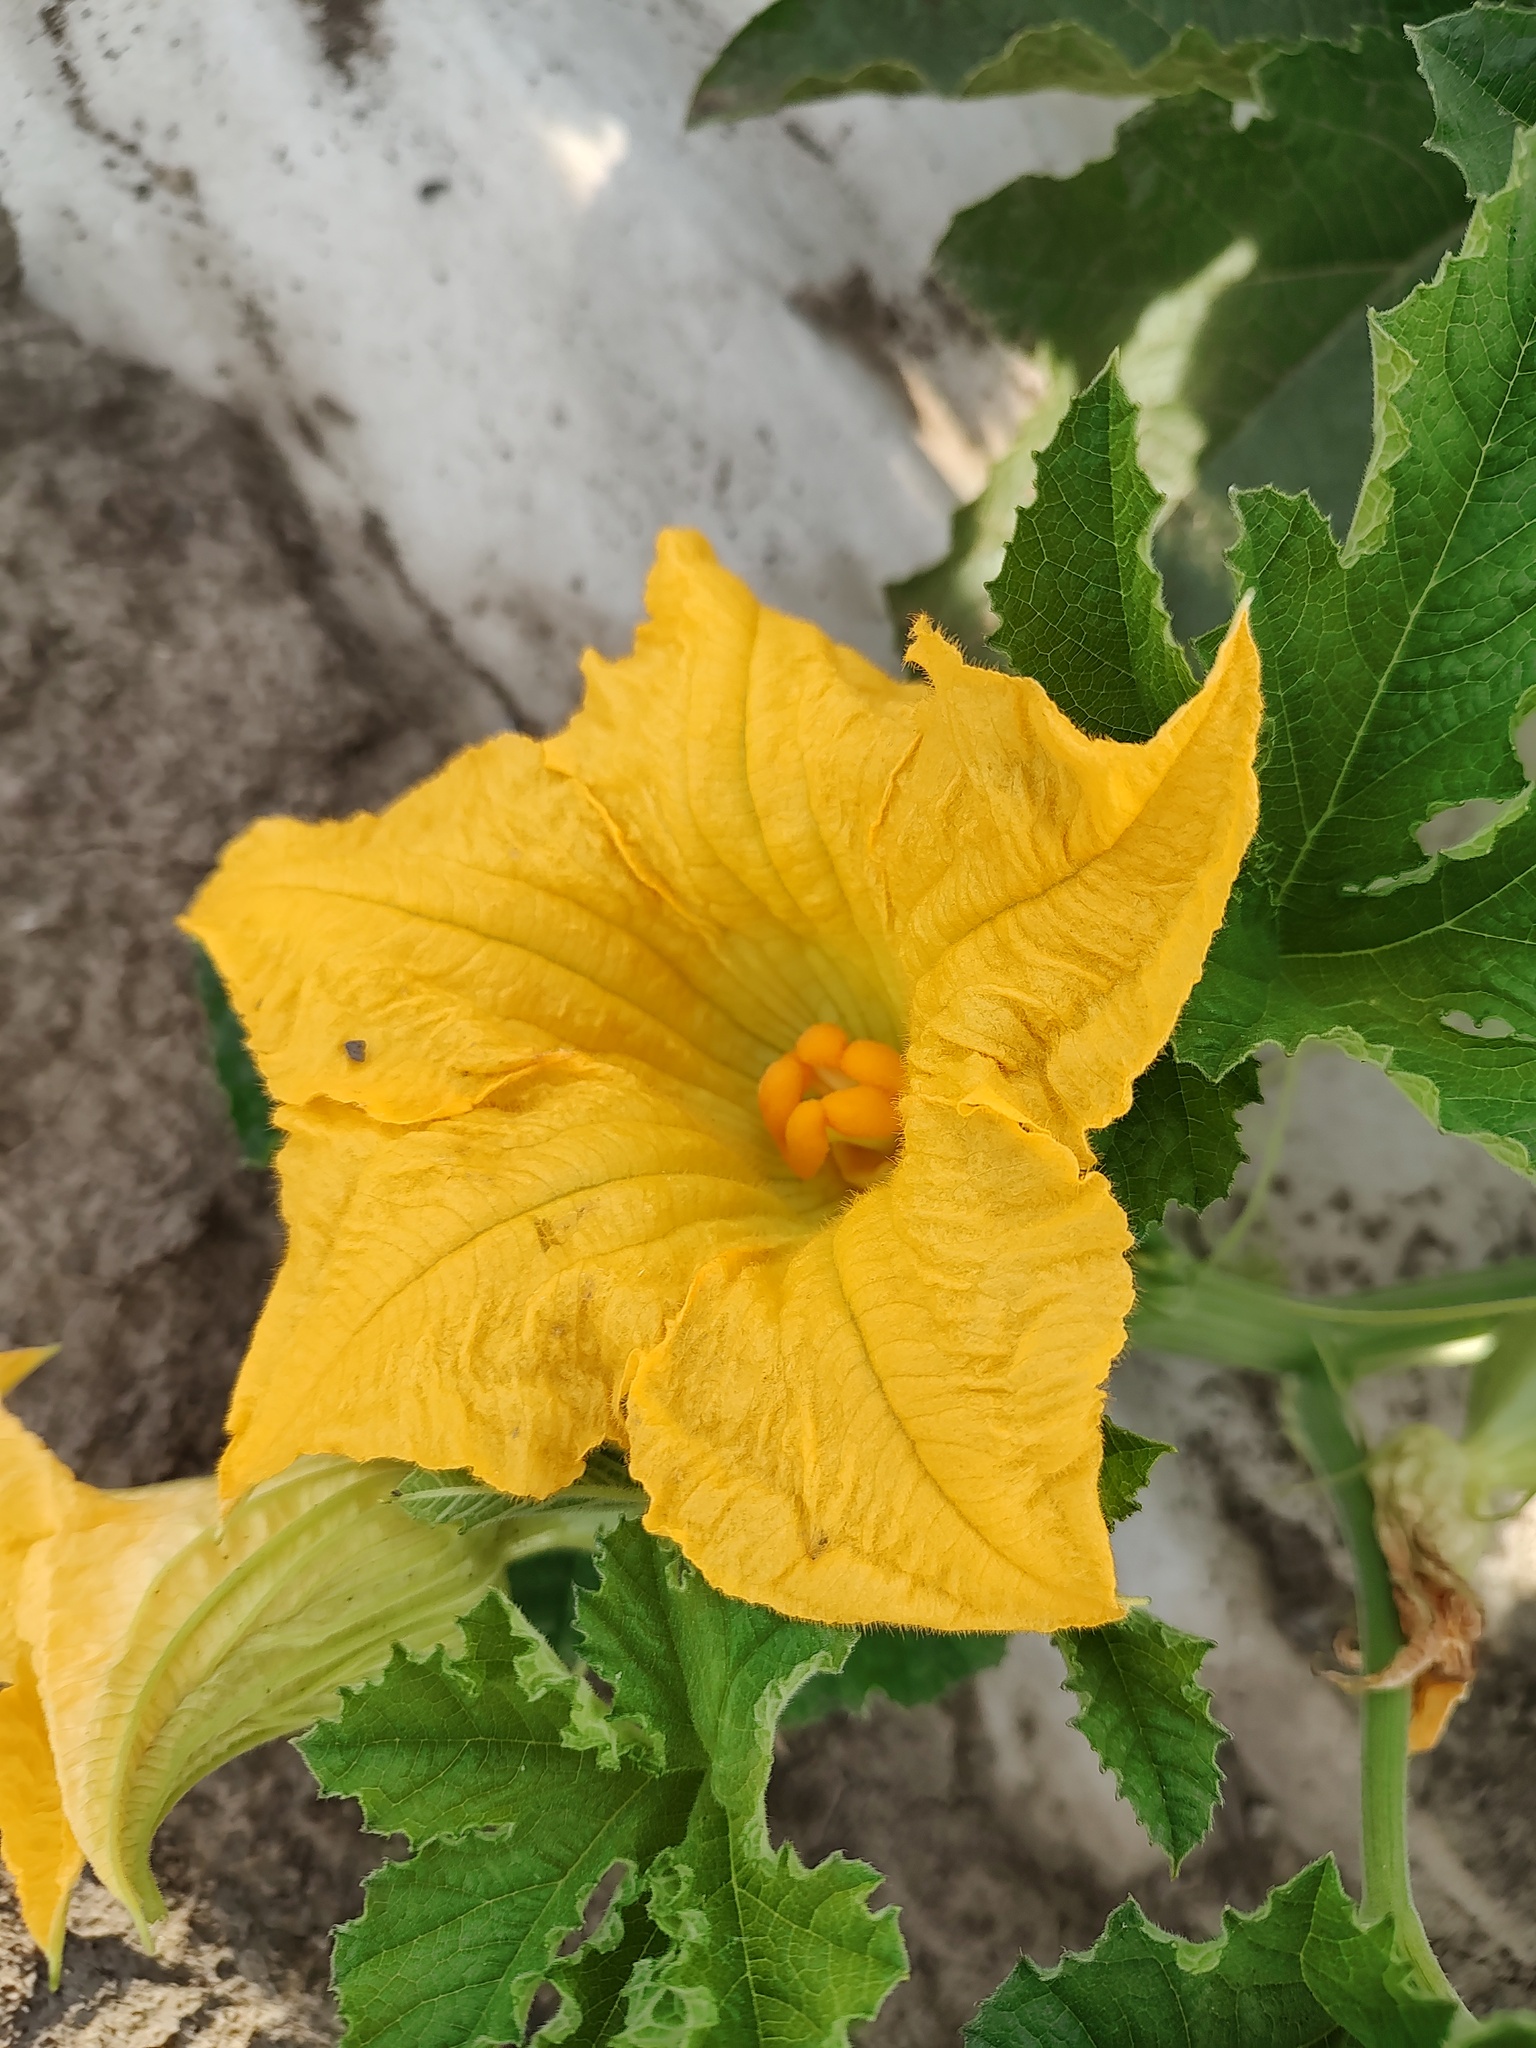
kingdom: Plantae
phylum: Tracheophyta
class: Magnoliopsida
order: Cucurbitales
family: Cucurbitaceae
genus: Cucurbita
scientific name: Cucurbita maxima
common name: Pumpkin
